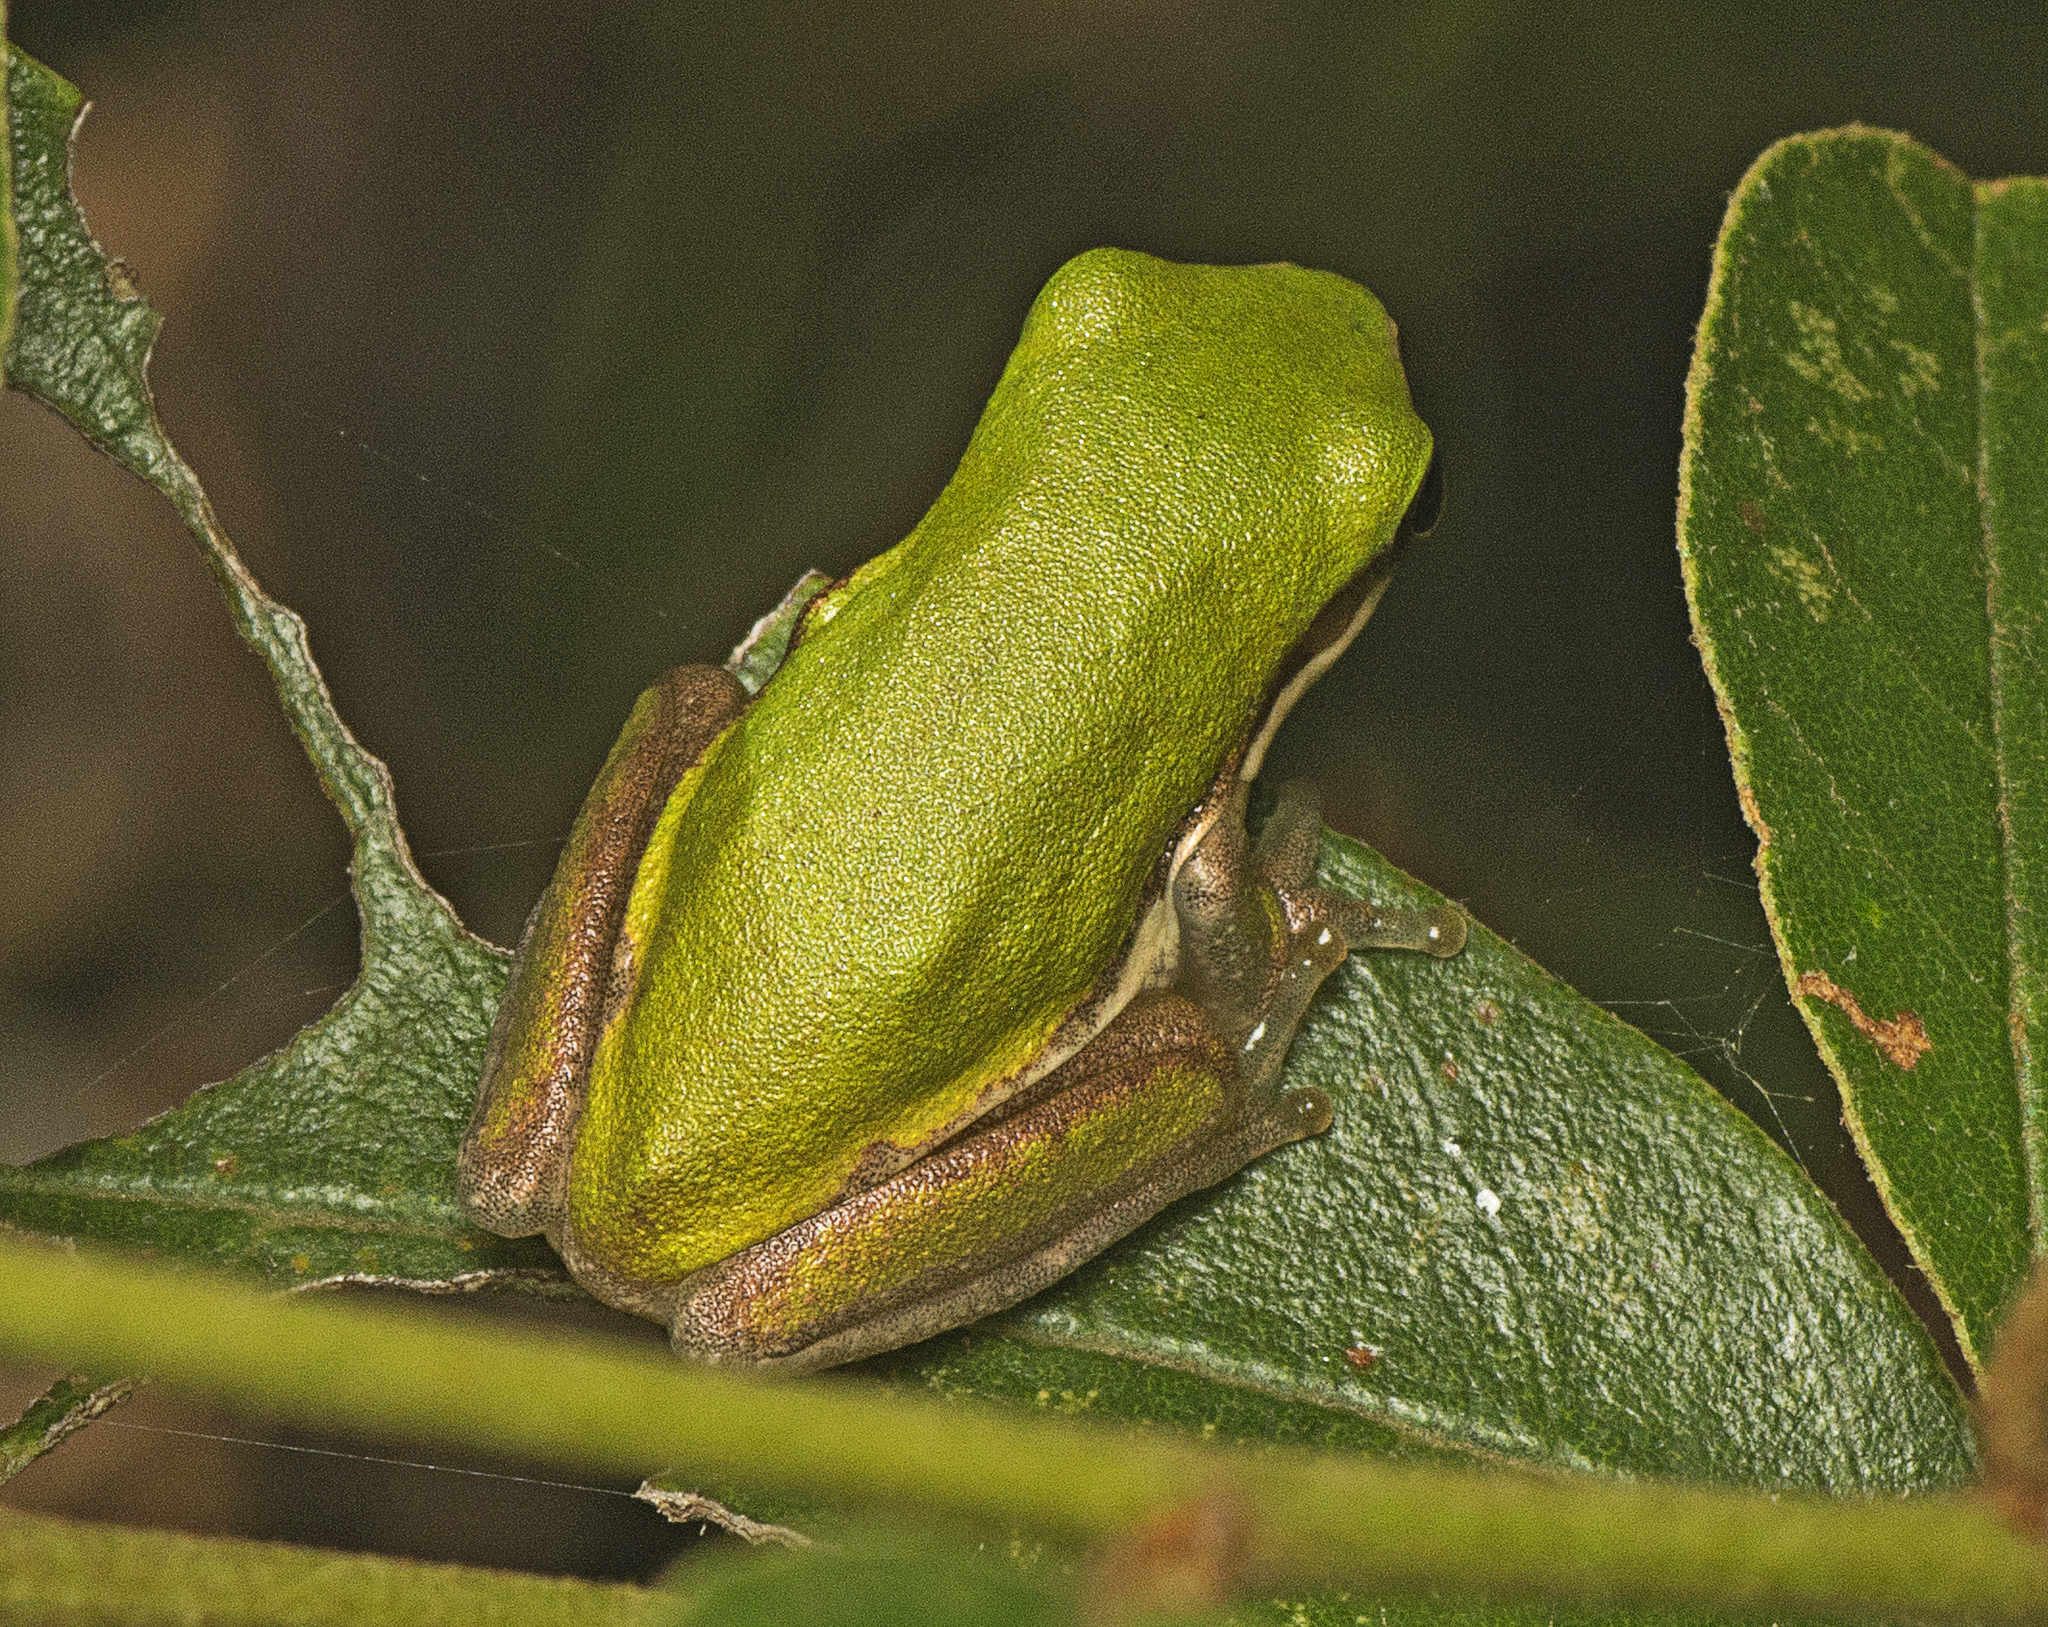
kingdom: Animalia
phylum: Chordata
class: Amphibia
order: Anura
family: Pelodryadidae
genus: Litoria
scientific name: Litoria fallax
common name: Eastern dwarf treefrog
